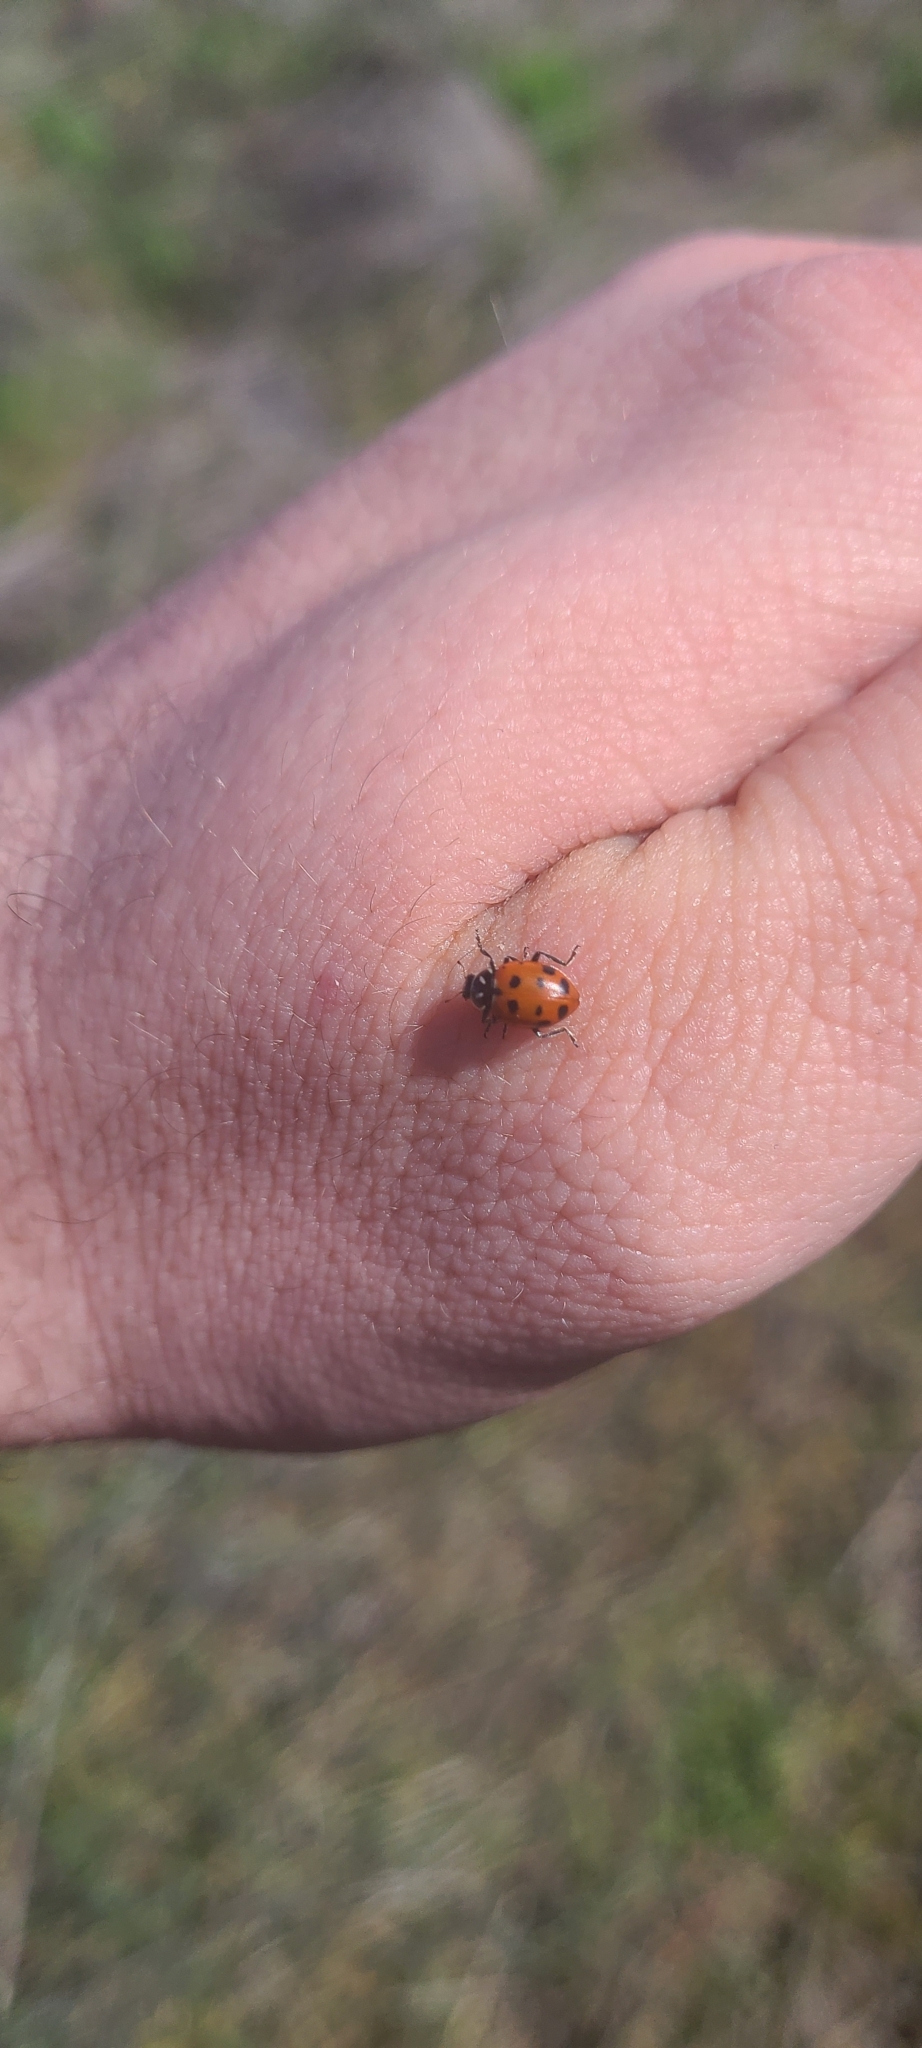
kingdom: Animalia
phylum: Arthropoda
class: Insecta
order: Coleoptera
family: Coccinellidae
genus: Hippodamia
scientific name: Hippodamia convergens
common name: Convergent lady beetle
